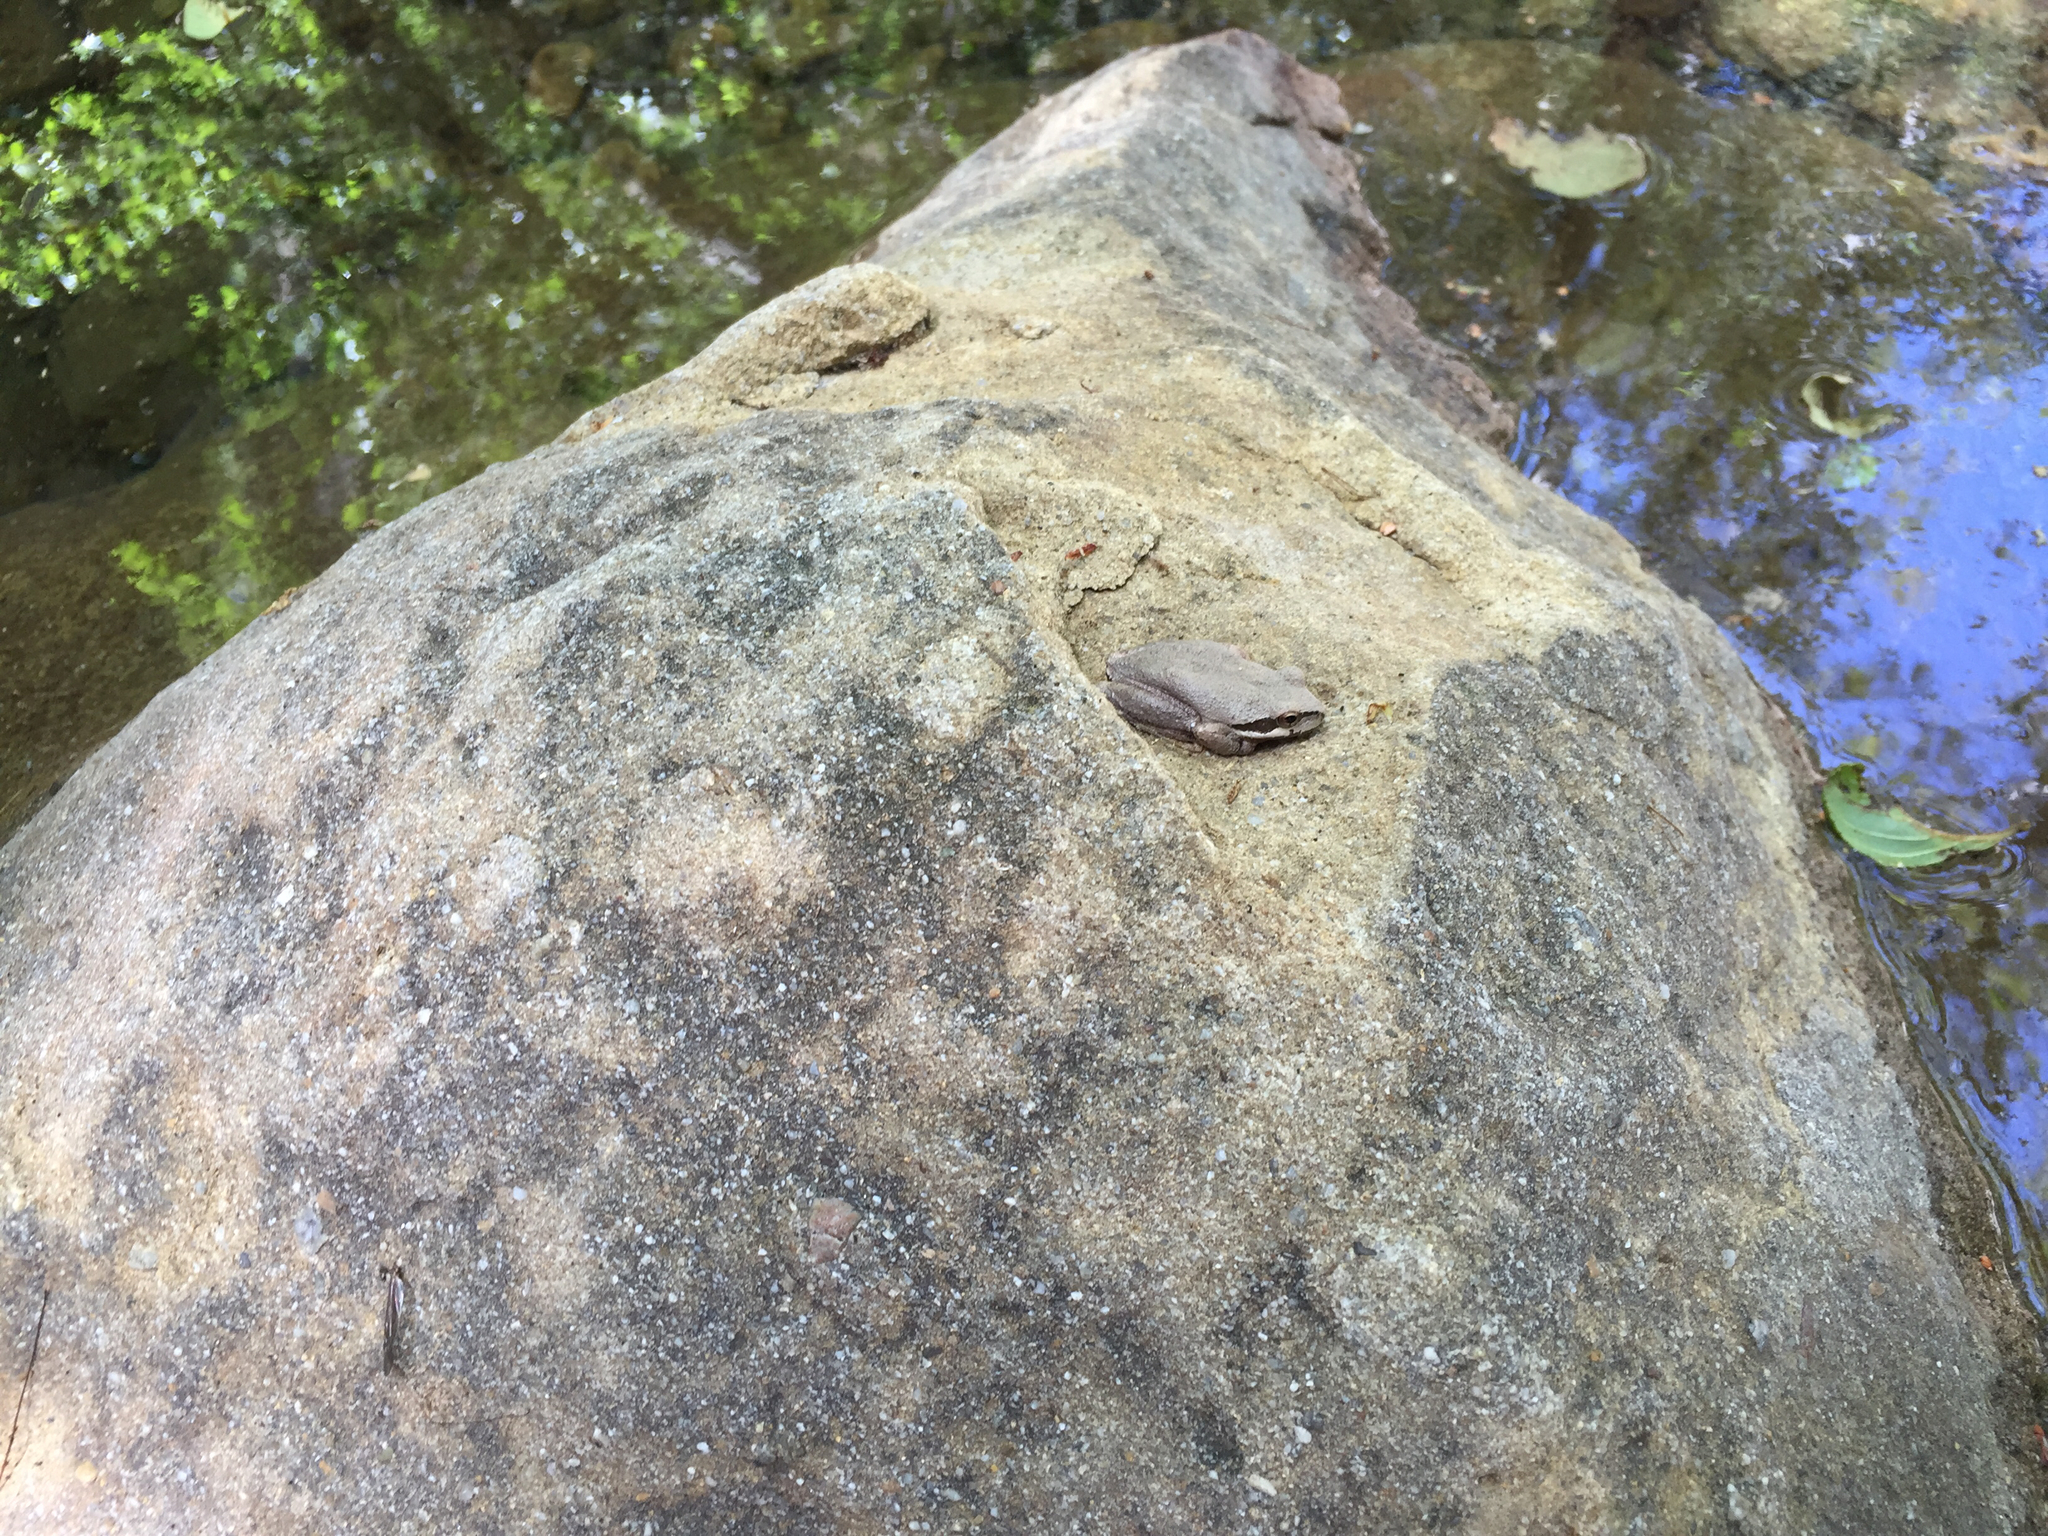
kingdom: Animalia
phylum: Chordata
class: Amphibia
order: Anura
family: Hylidae
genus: Pseudacris
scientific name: Pseudacris regilla
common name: Pacific chorus frog
